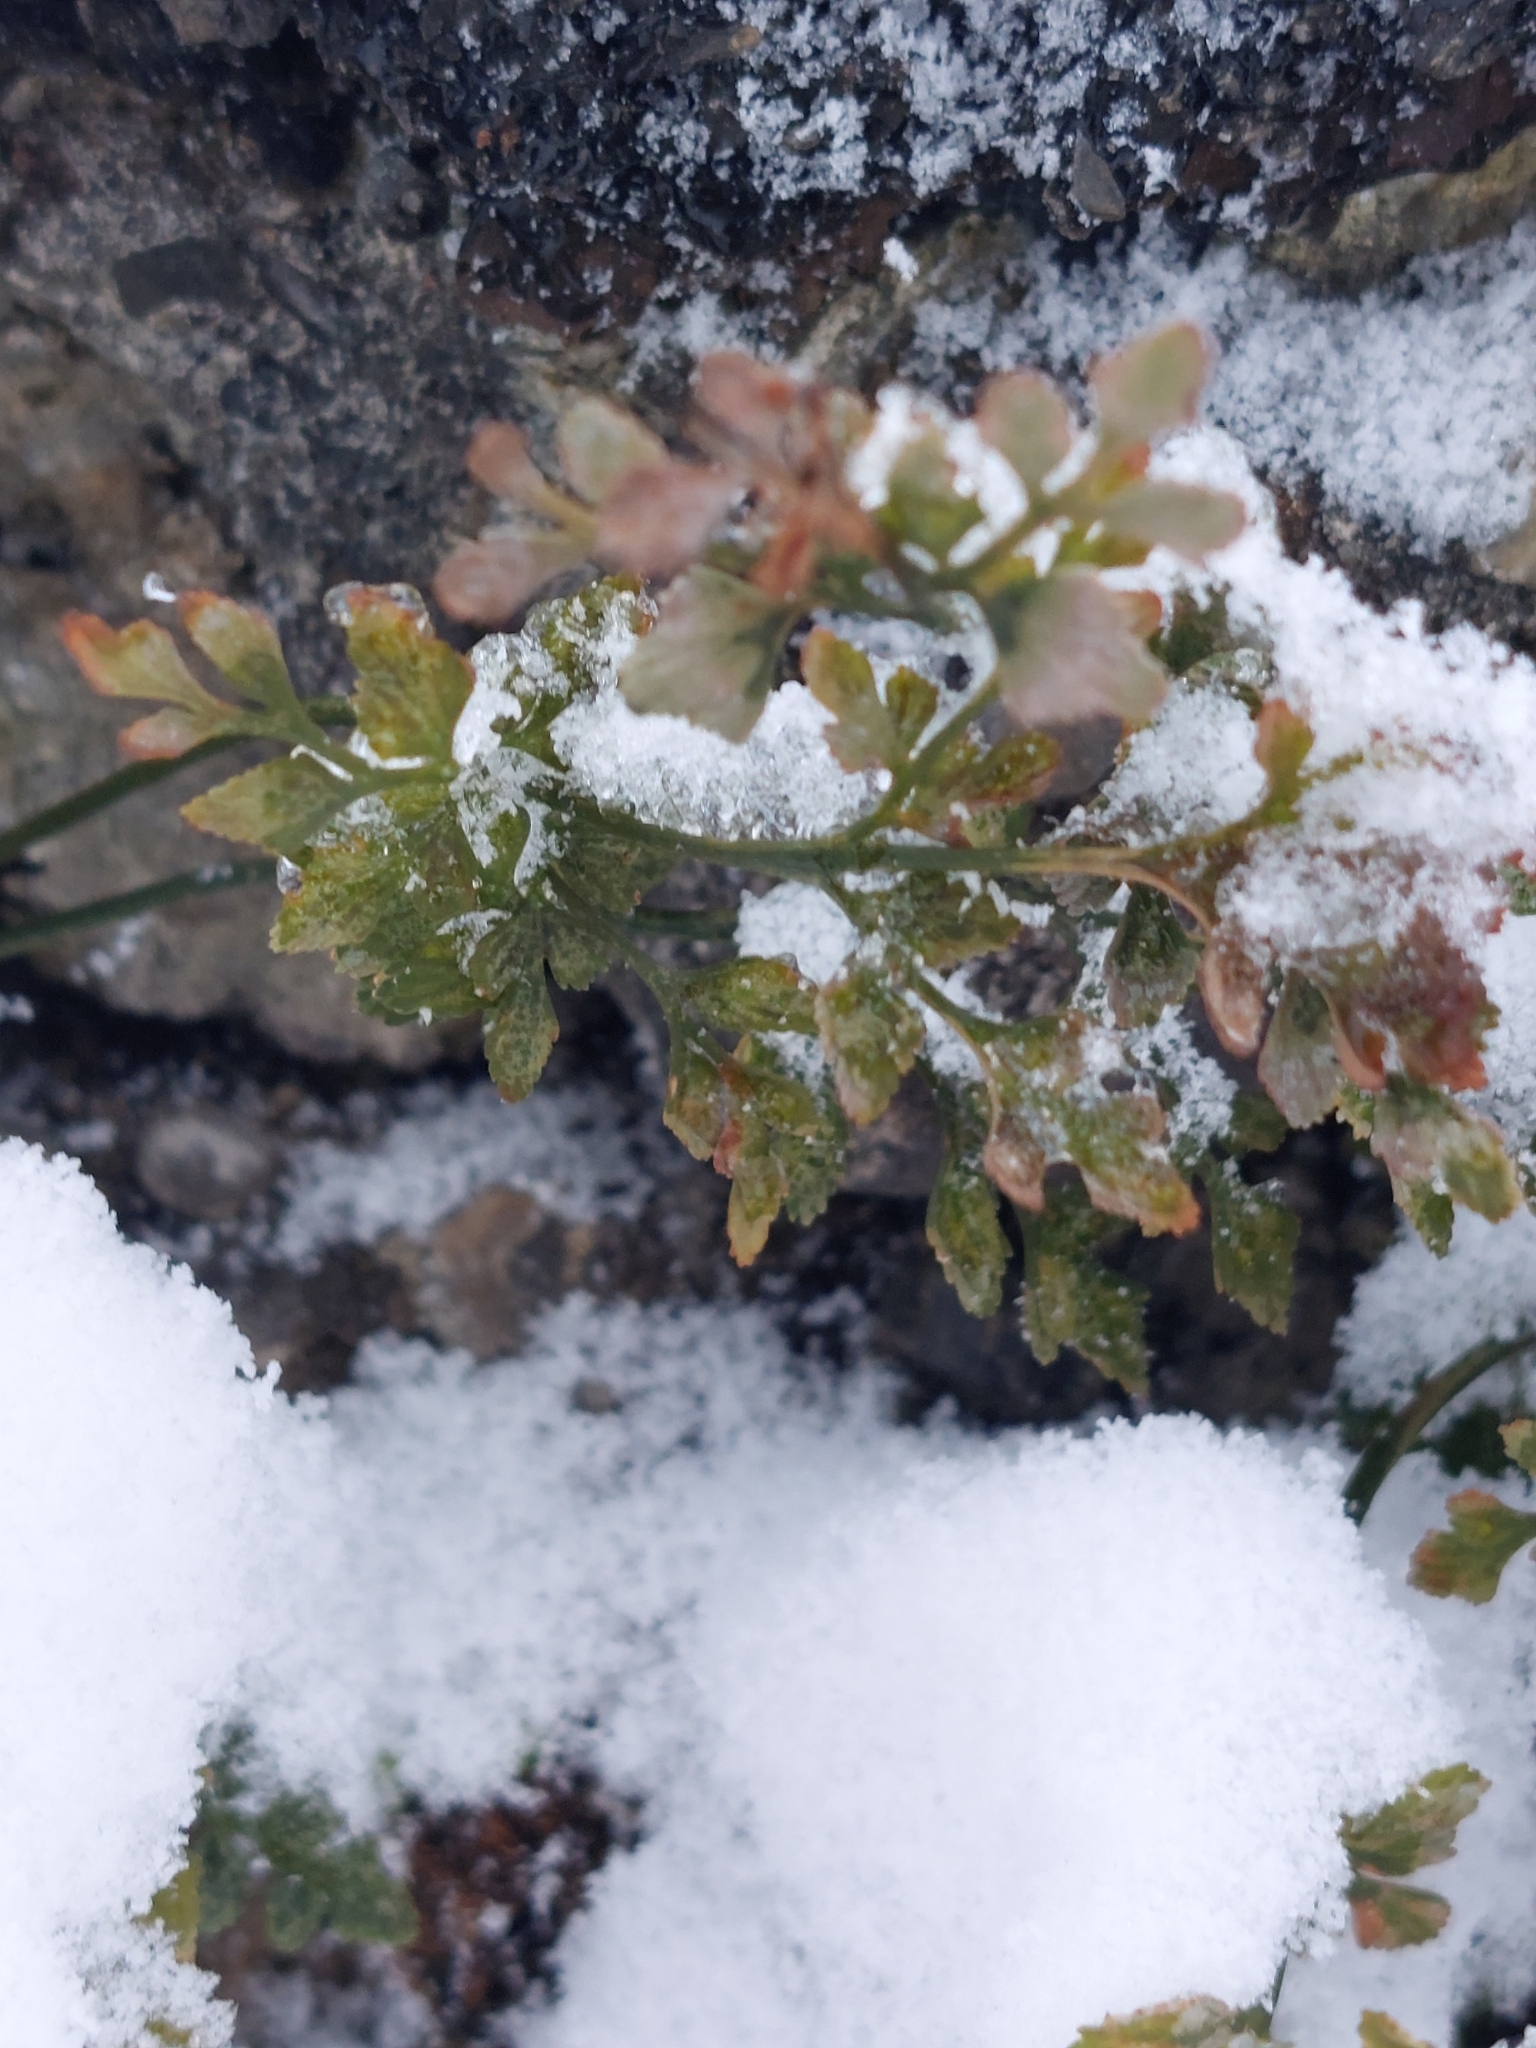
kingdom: Plantae
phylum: Tracheophyta
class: Polypodiopsida
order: Polypodiales
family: Aspleniaceae
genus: Asplenium
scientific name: Asplenium ruta-muraria
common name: Wall-rue
